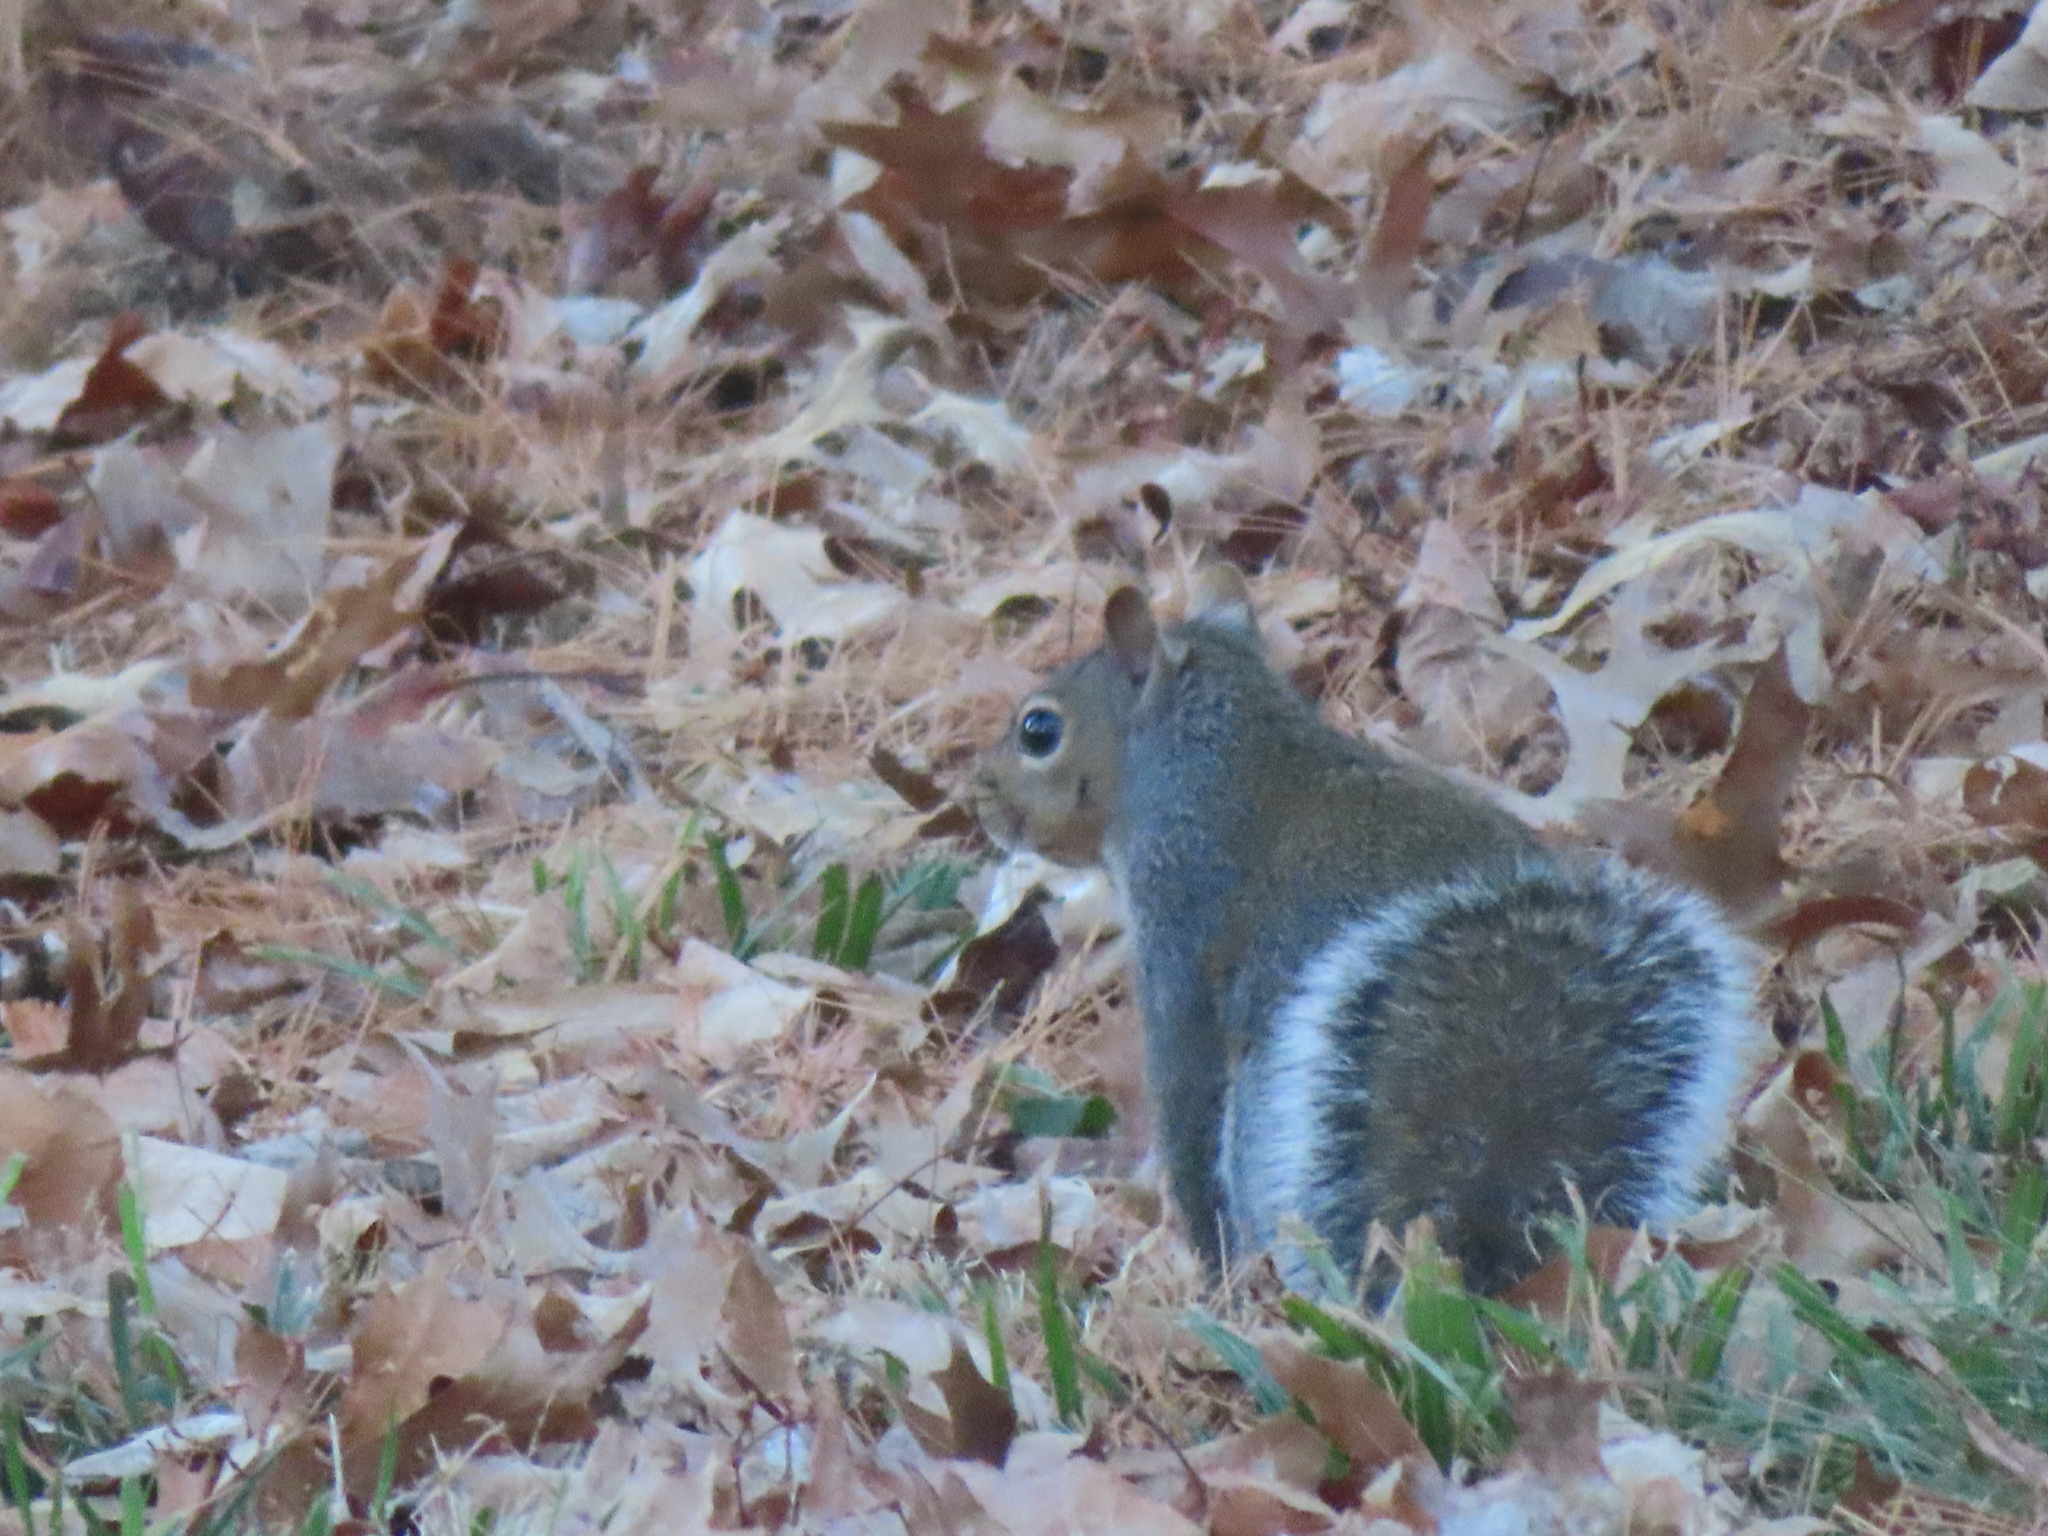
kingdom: Animalia
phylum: Chordata
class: Mammalia
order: Rodentia
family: Sciuridae
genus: Sciurus
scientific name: Sciurus carolinensis
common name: Eastern gray squirrel
